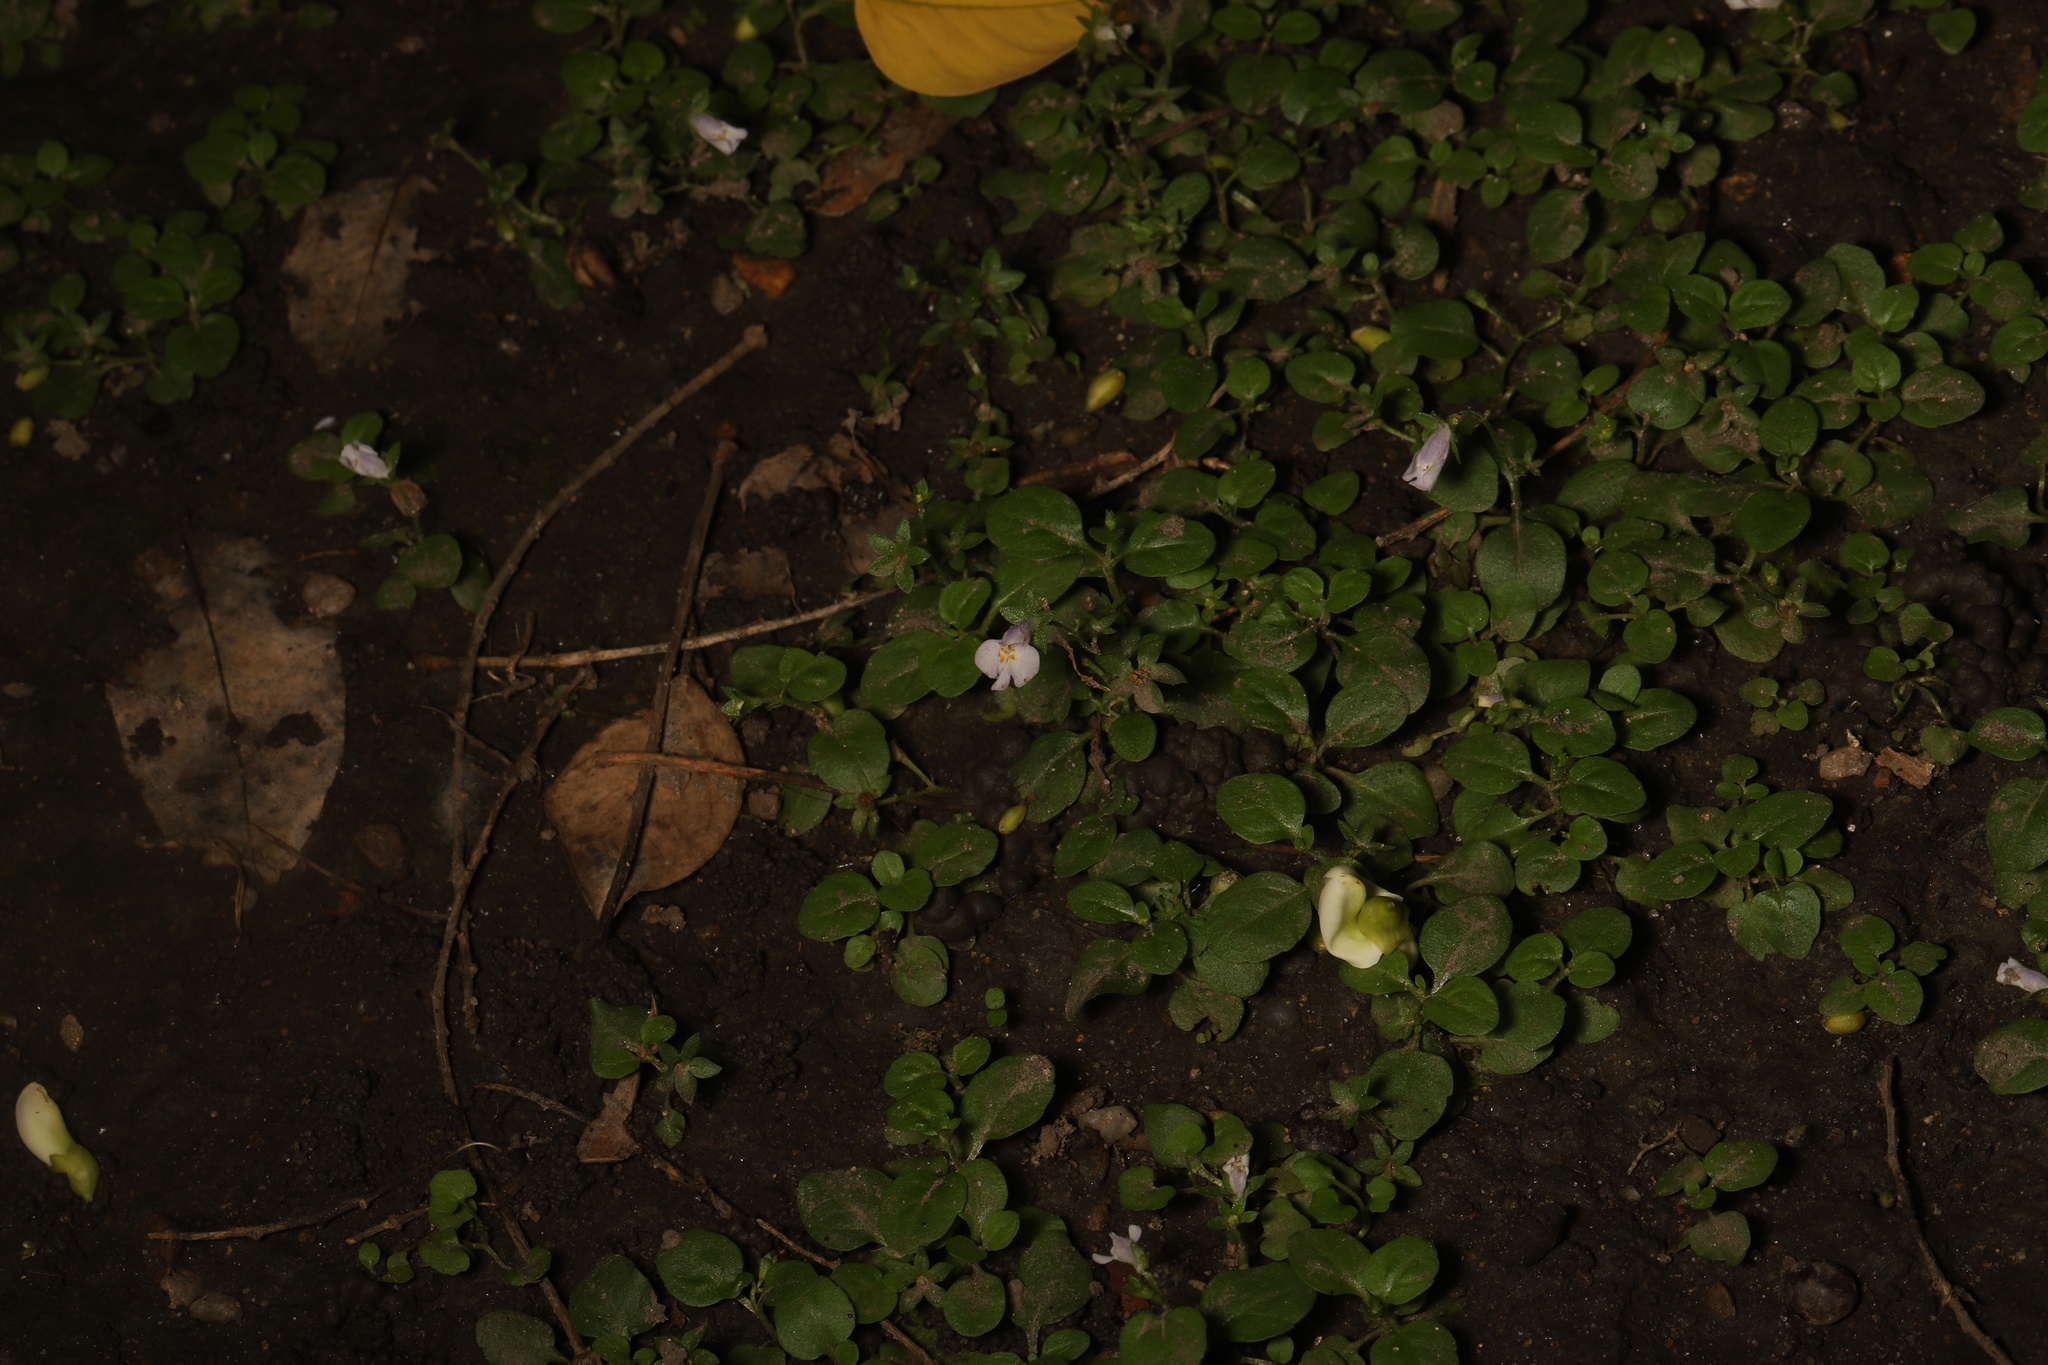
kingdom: Plantae
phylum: Tracheophyta
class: Magnoliopsida
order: Lamiales
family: Mazaceae
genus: Mazus
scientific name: Mazus pumilus
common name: Japanese mazus
